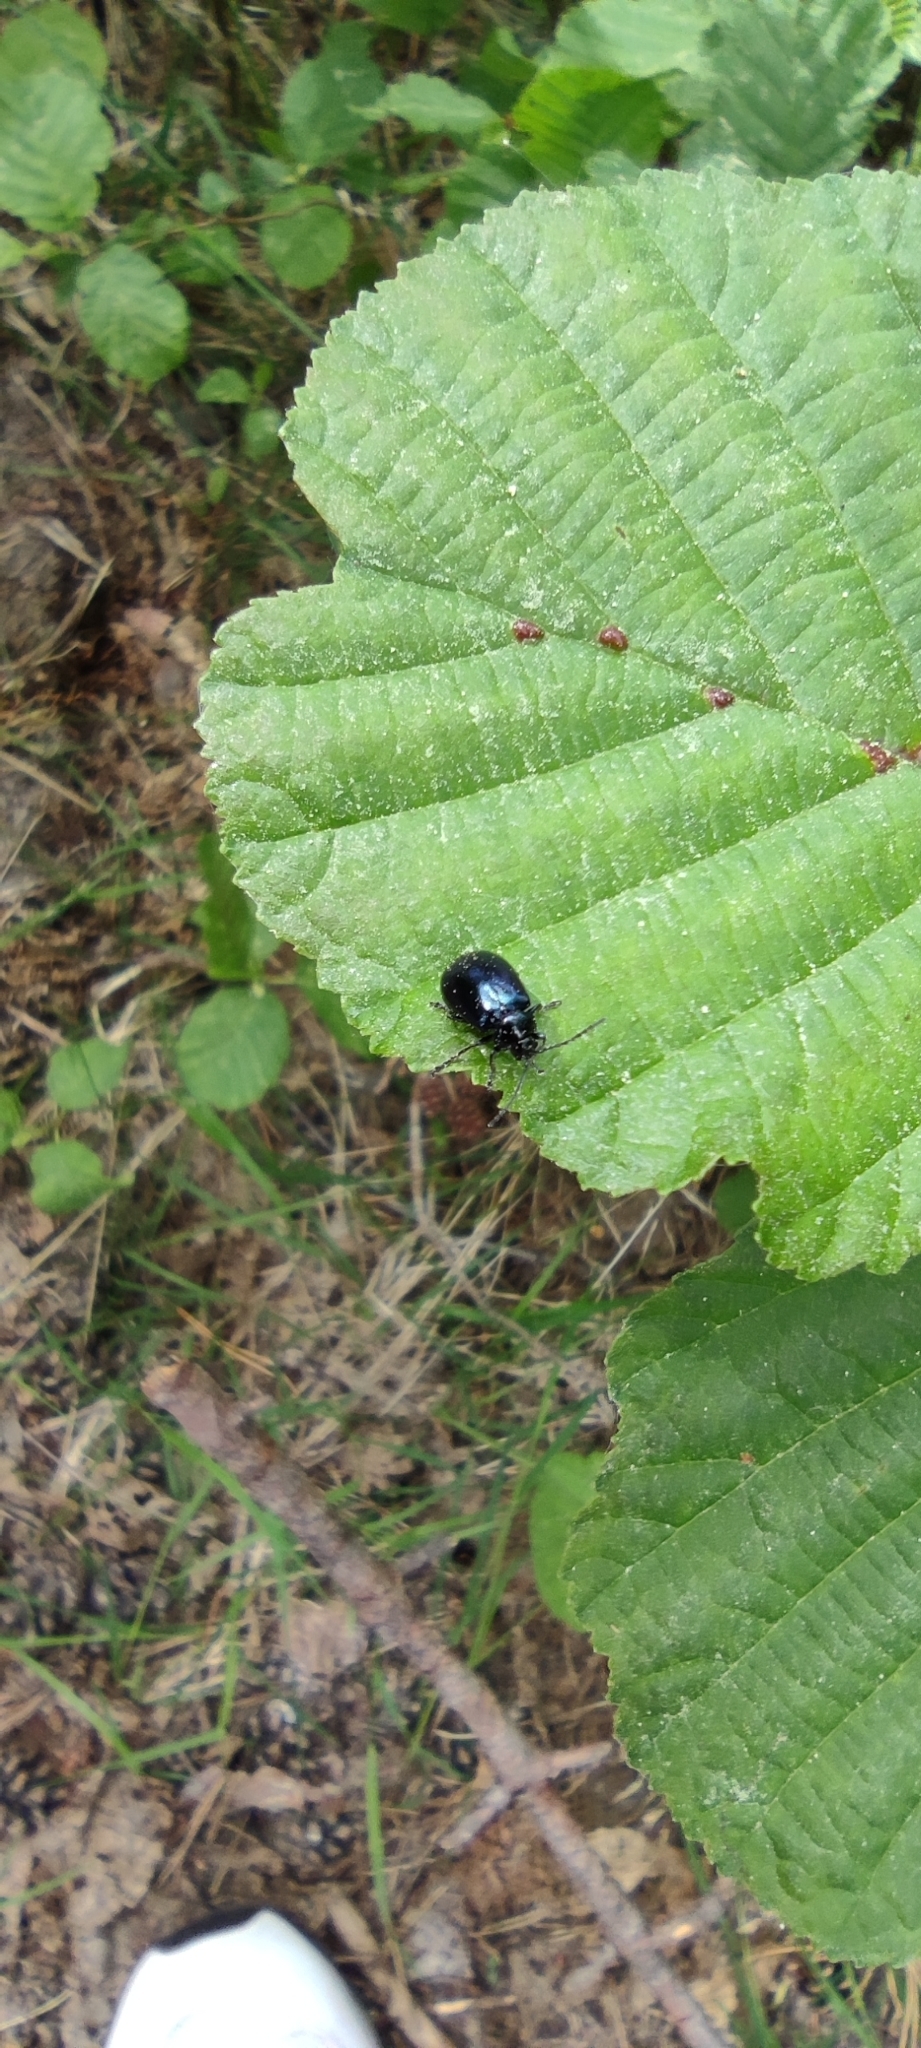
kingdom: Animalia
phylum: Arthropoda
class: Insecta
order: Coleoptera
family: Chrysomelidae
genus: Agelastica
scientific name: Agelastica alni
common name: Alder leaf beetle
